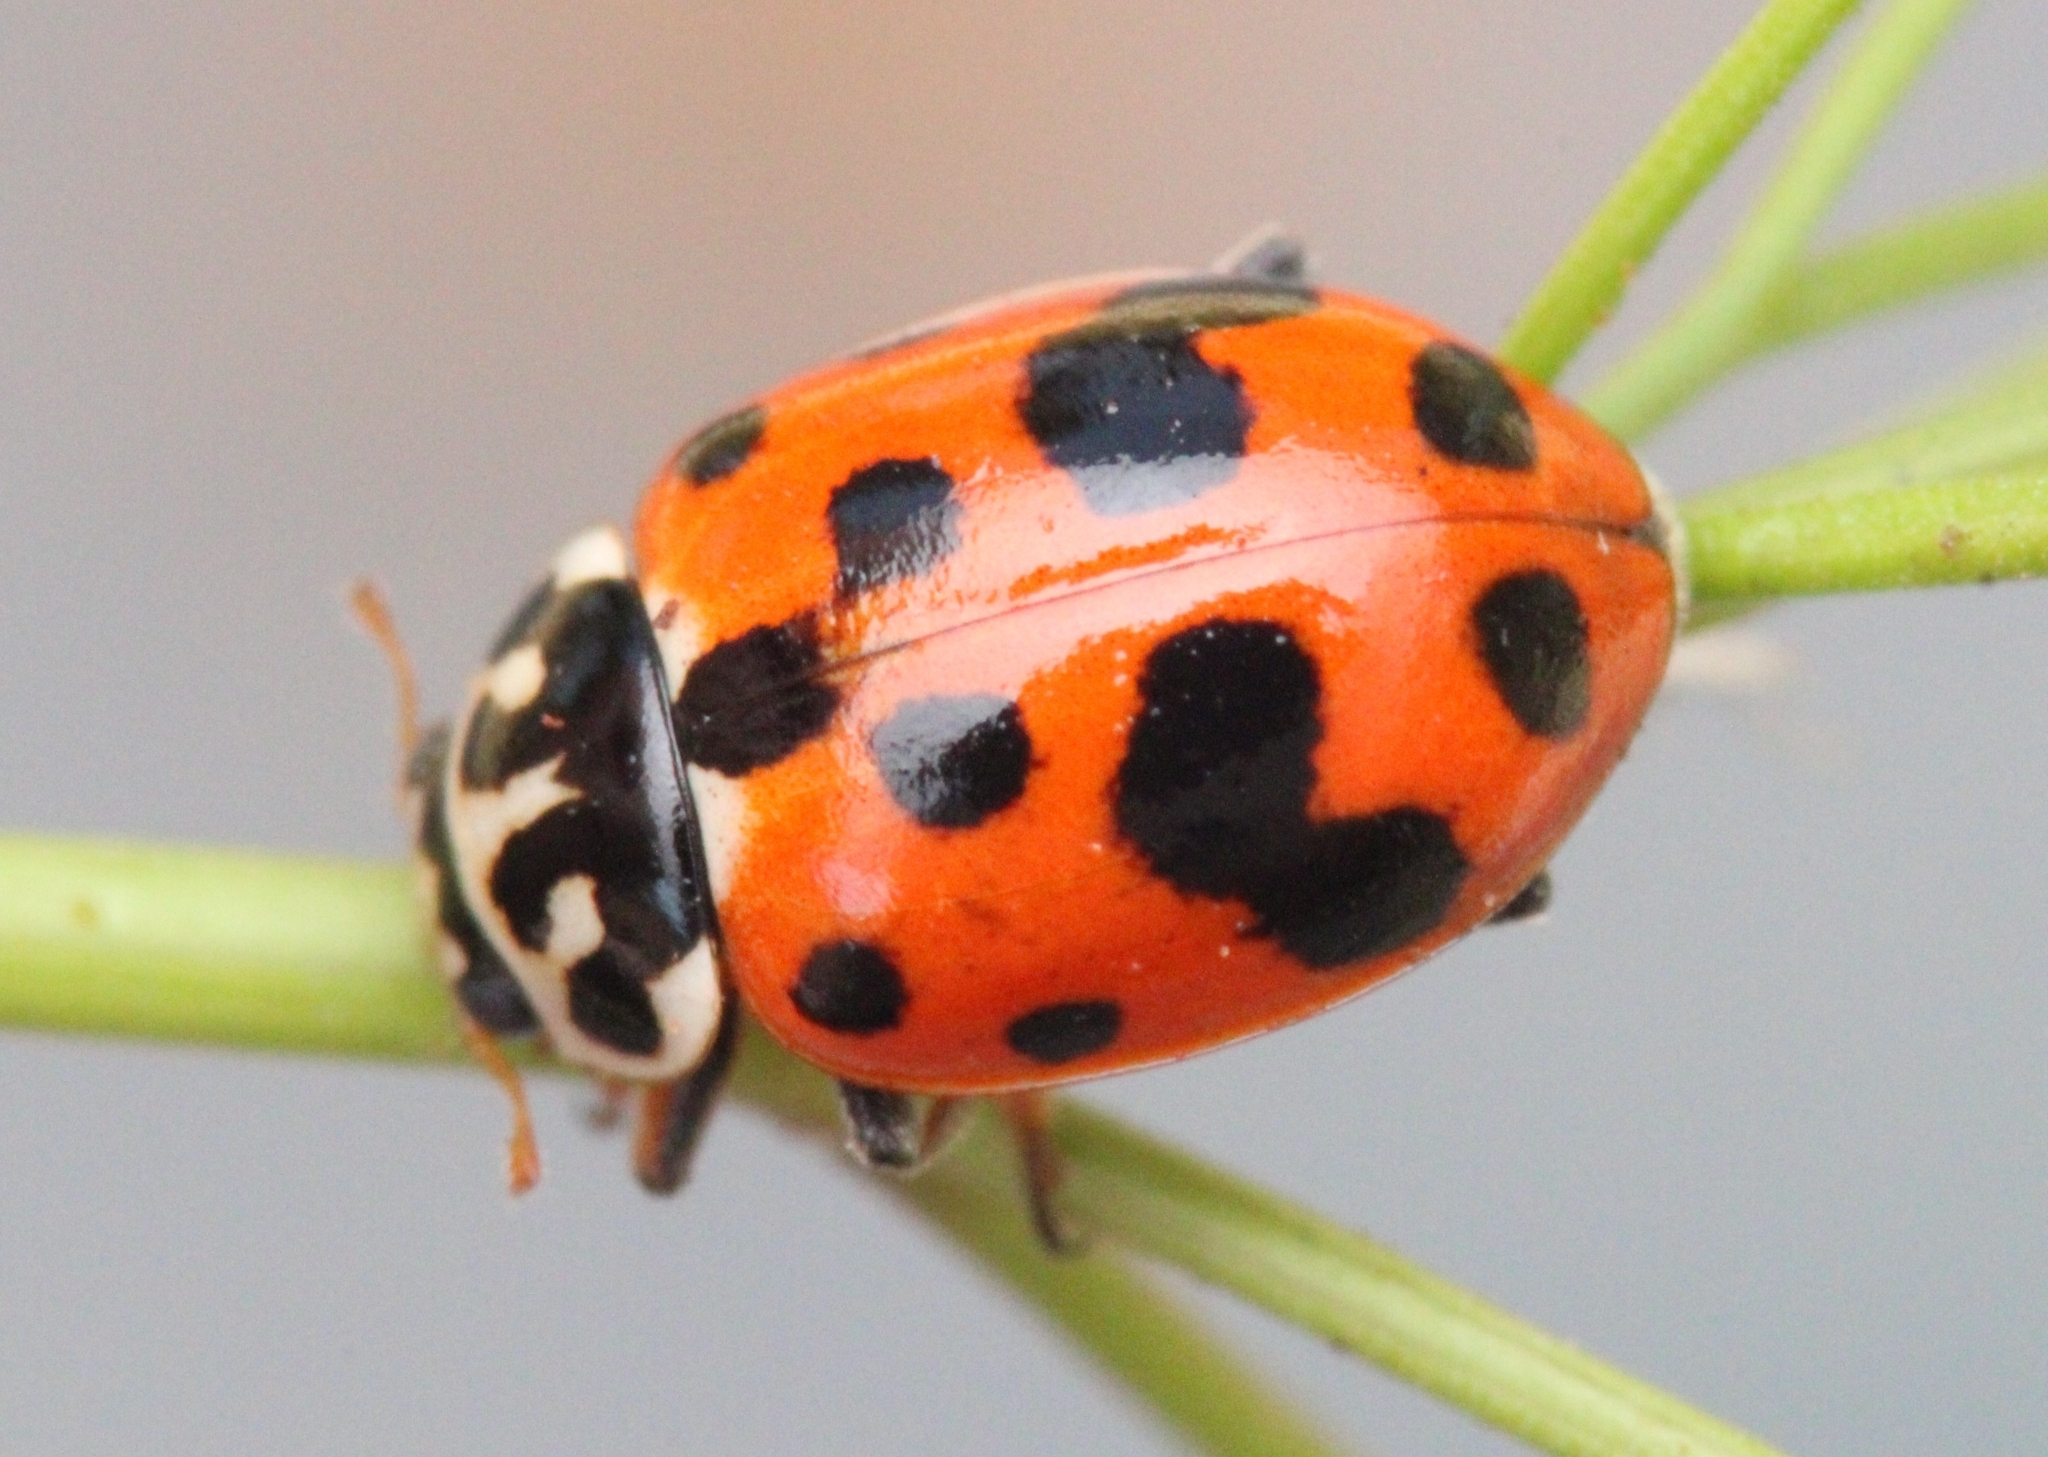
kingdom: Animalia
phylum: Arthropoda
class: Insecta
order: Coleoptera
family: Coccinellidae
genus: Hippodamia
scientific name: Hippodamia variegata
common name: Ladybird beetle
